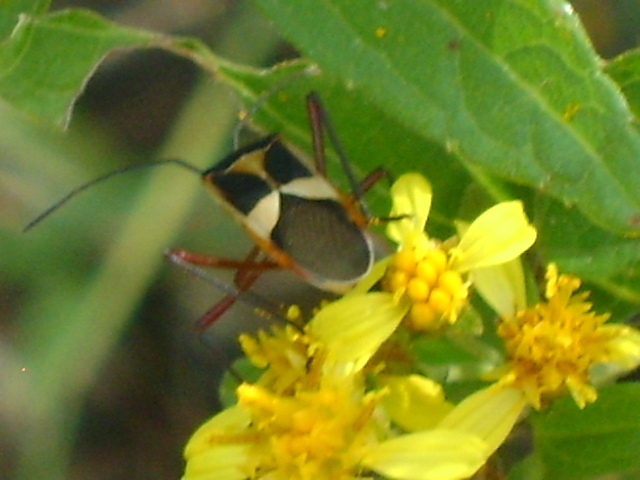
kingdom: Animalia
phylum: Arthropoda
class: Insecta
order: Hemiptera
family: Coreidae
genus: Hypselonotus
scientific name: Hypselonotus interruptus
